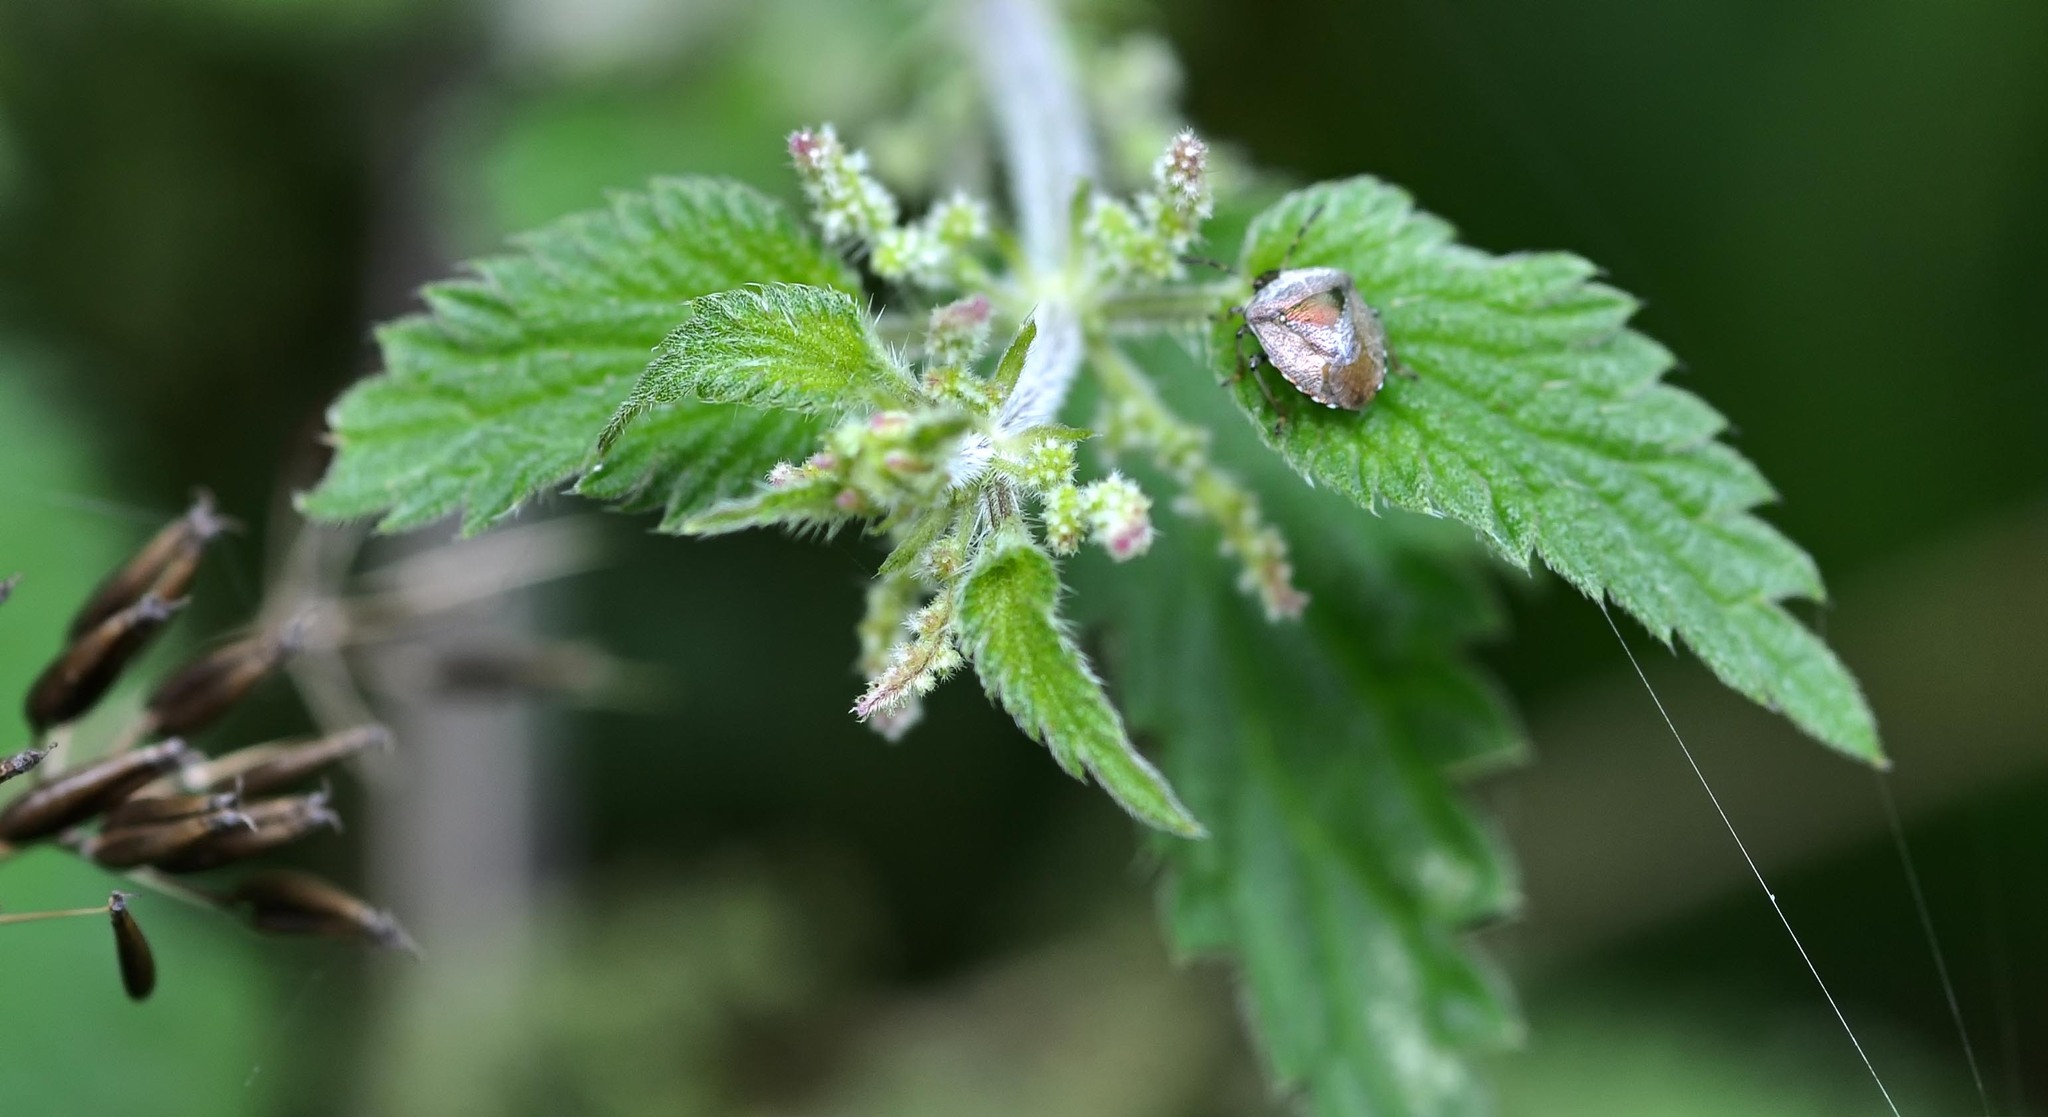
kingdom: Animalia
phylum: Arthropoda
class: Insecta
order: Hemiptera
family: Pentatomidae
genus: Eysarcoris
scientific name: Eysarcoris venustissimus
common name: Woundwort shieldbug
